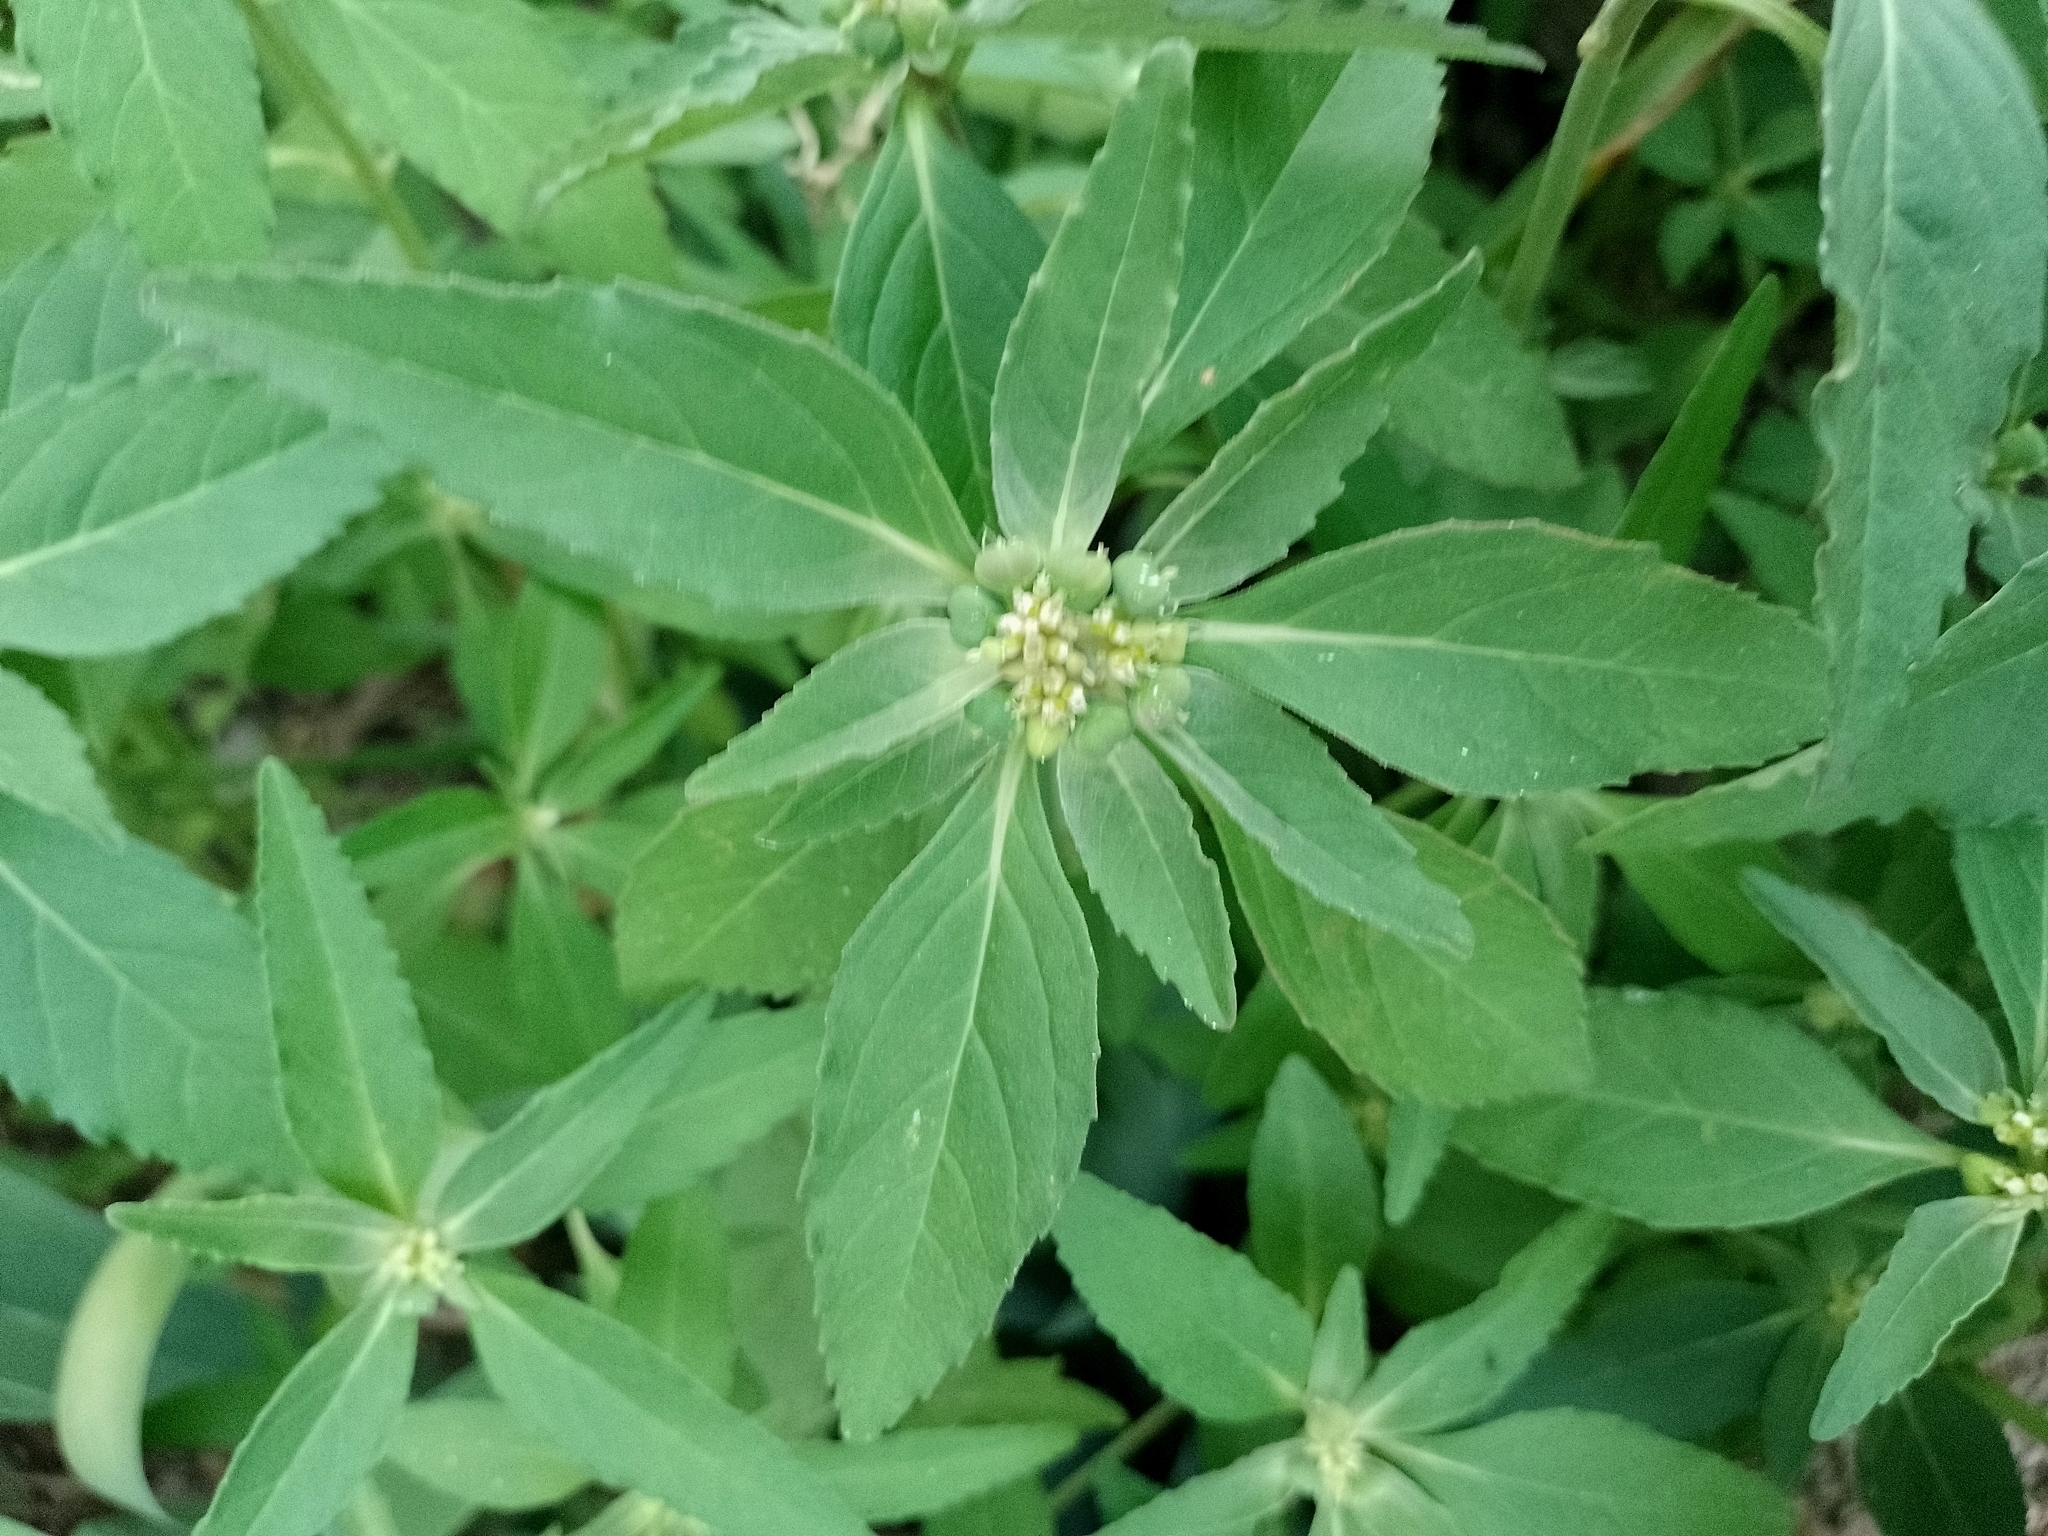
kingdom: Plantae
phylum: Tracheophyta
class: Magnoliopsida
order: Malpighiales
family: Euphorbiaceae
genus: Euphorbia
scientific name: Euphorbia dentata
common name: Dentate spurge
